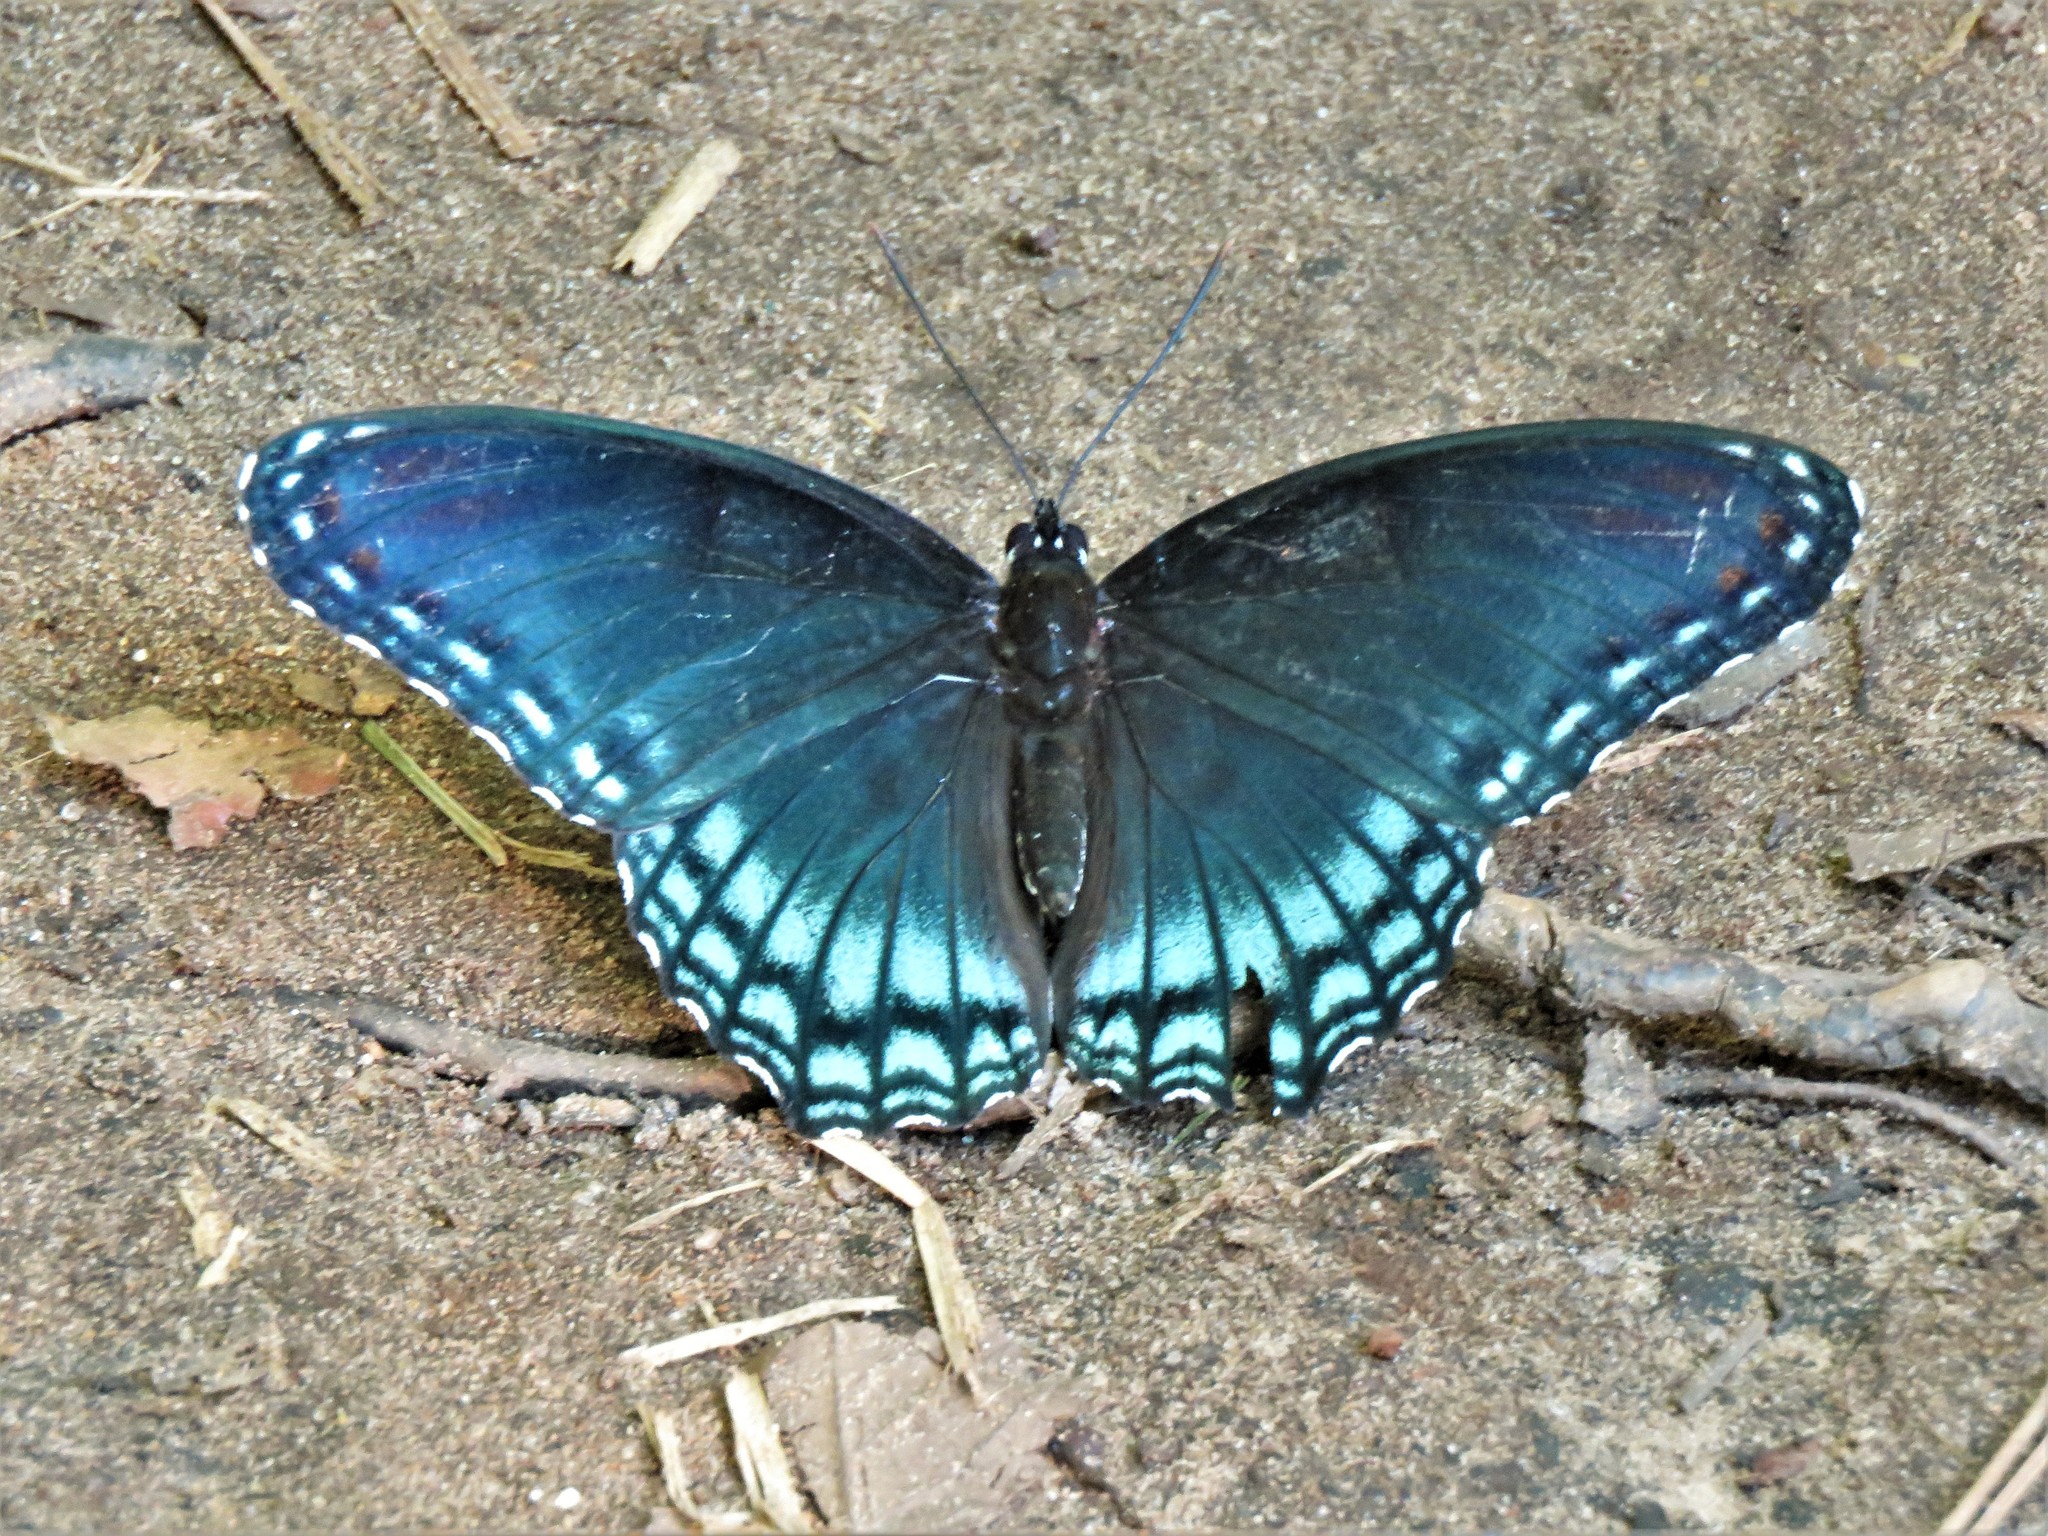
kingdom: Animalia
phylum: Arthropoda
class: Insecta
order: Lepidoptera
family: Nymphalidae
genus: Limenitis
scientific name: Limenitis arthemis
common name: Red-spotted admiral
